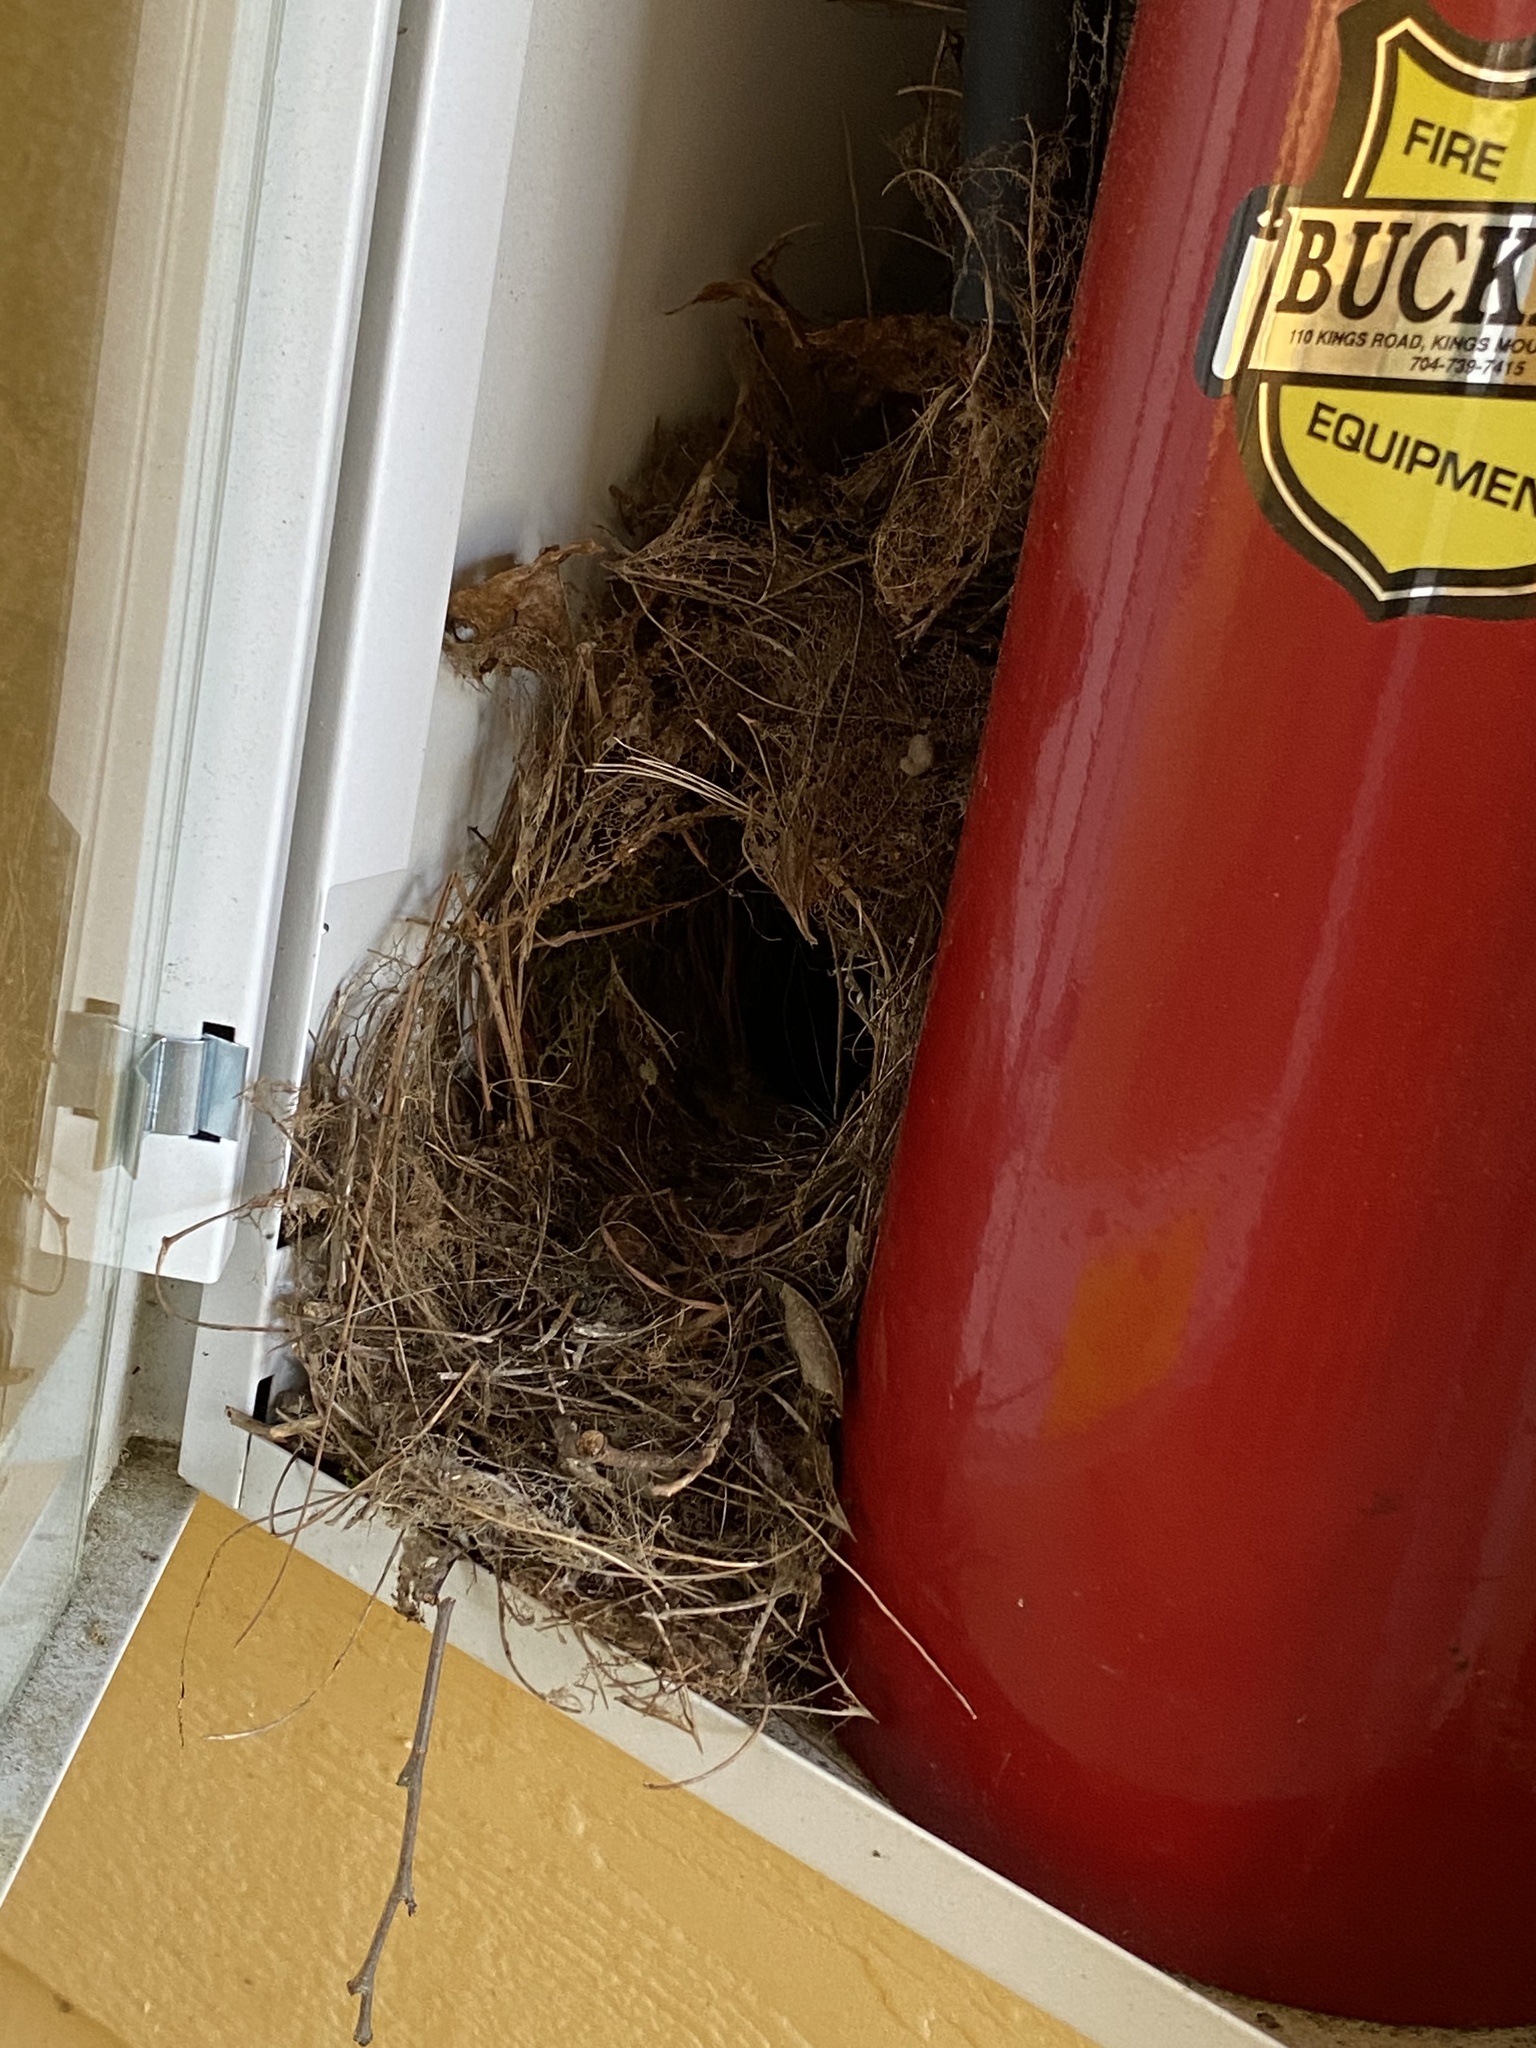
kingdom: Animalia
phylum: Chordata
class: Aves
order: Passeriformes
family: Troglodytidae
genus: Thryothorus
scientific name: Thryothorus ludovicianus
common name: Carolina wren
